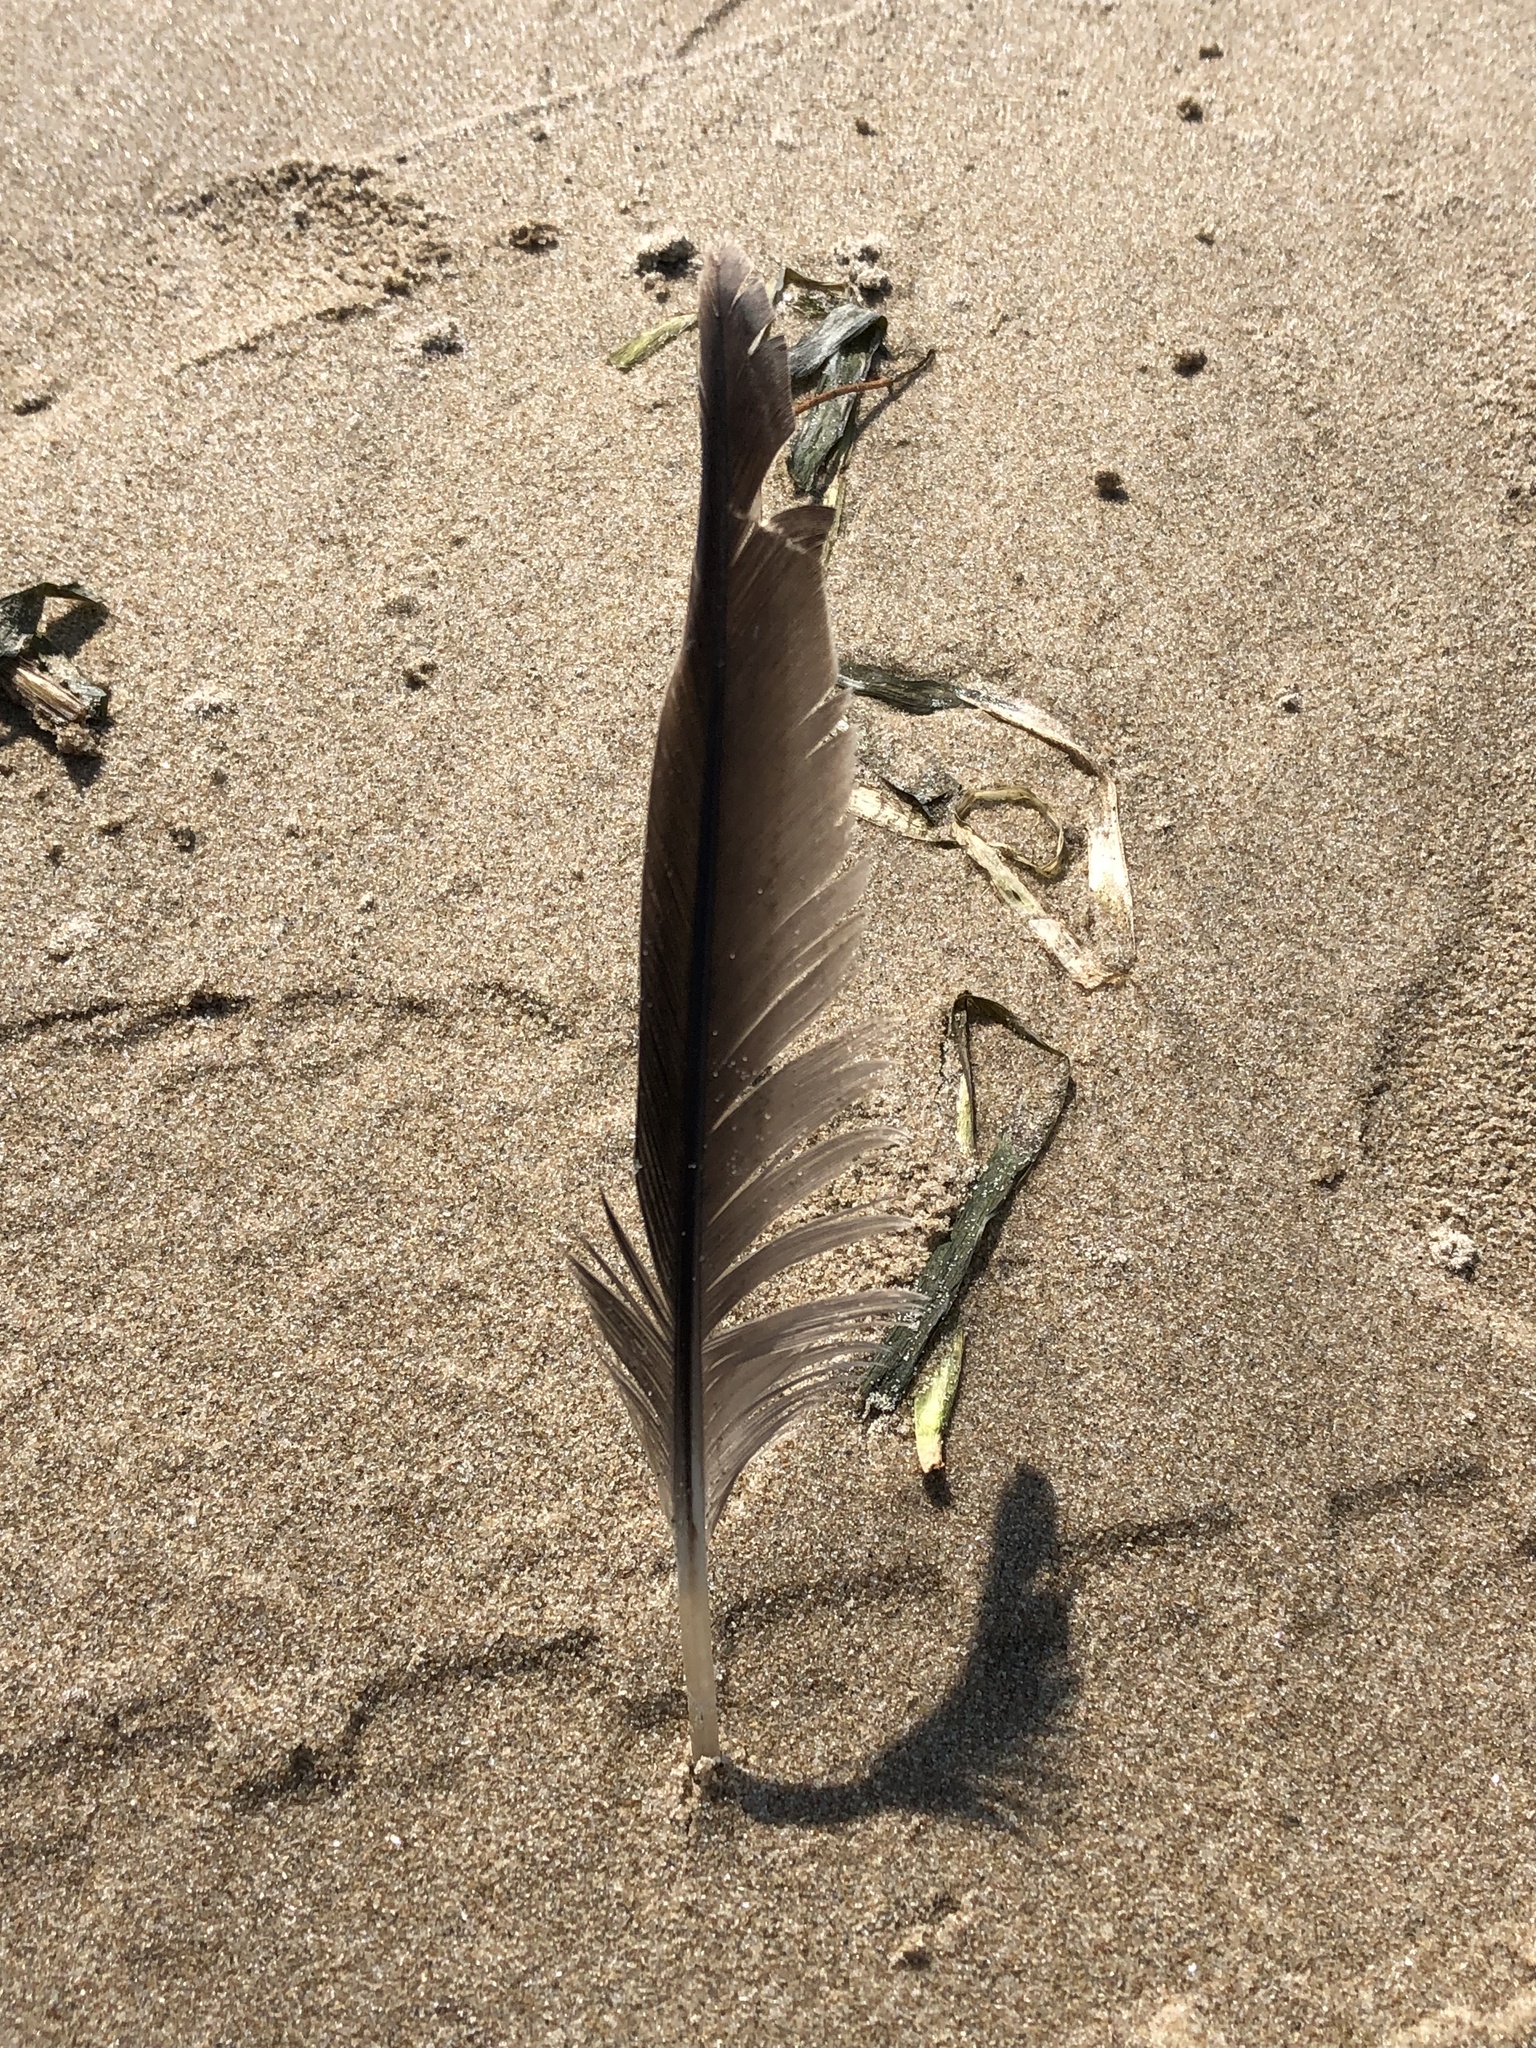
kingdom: Animalia
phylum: Chordata
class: Aves
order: Anseriformes
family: Anatidae
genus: Branta
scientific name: Branta canadensis
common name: Canada goose
